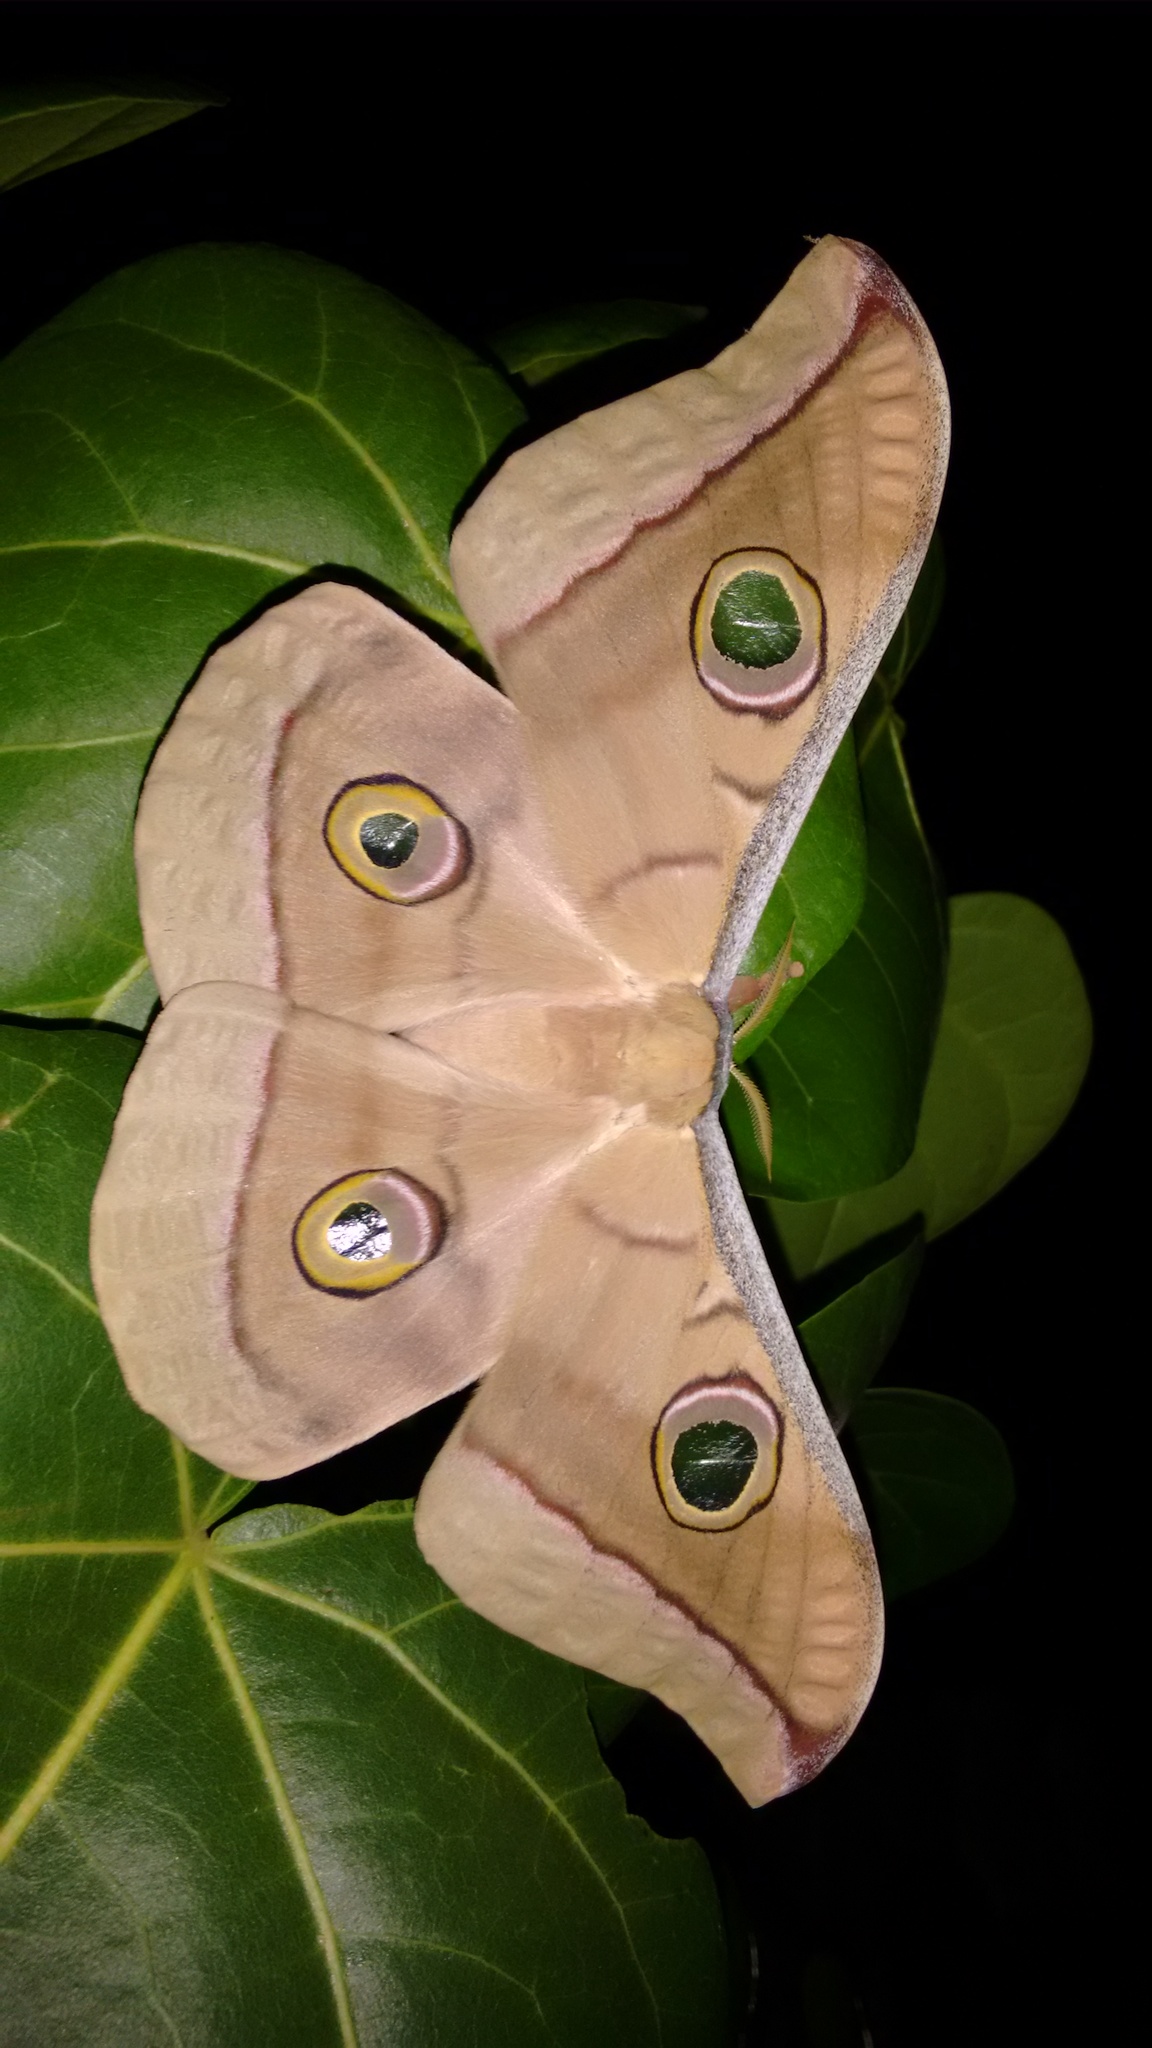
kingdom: Animalia
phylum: Arthropoda
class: Insecta
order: Lepidoptera
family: Saturniidae
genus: Antheraea
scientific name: Antheraea paphia
